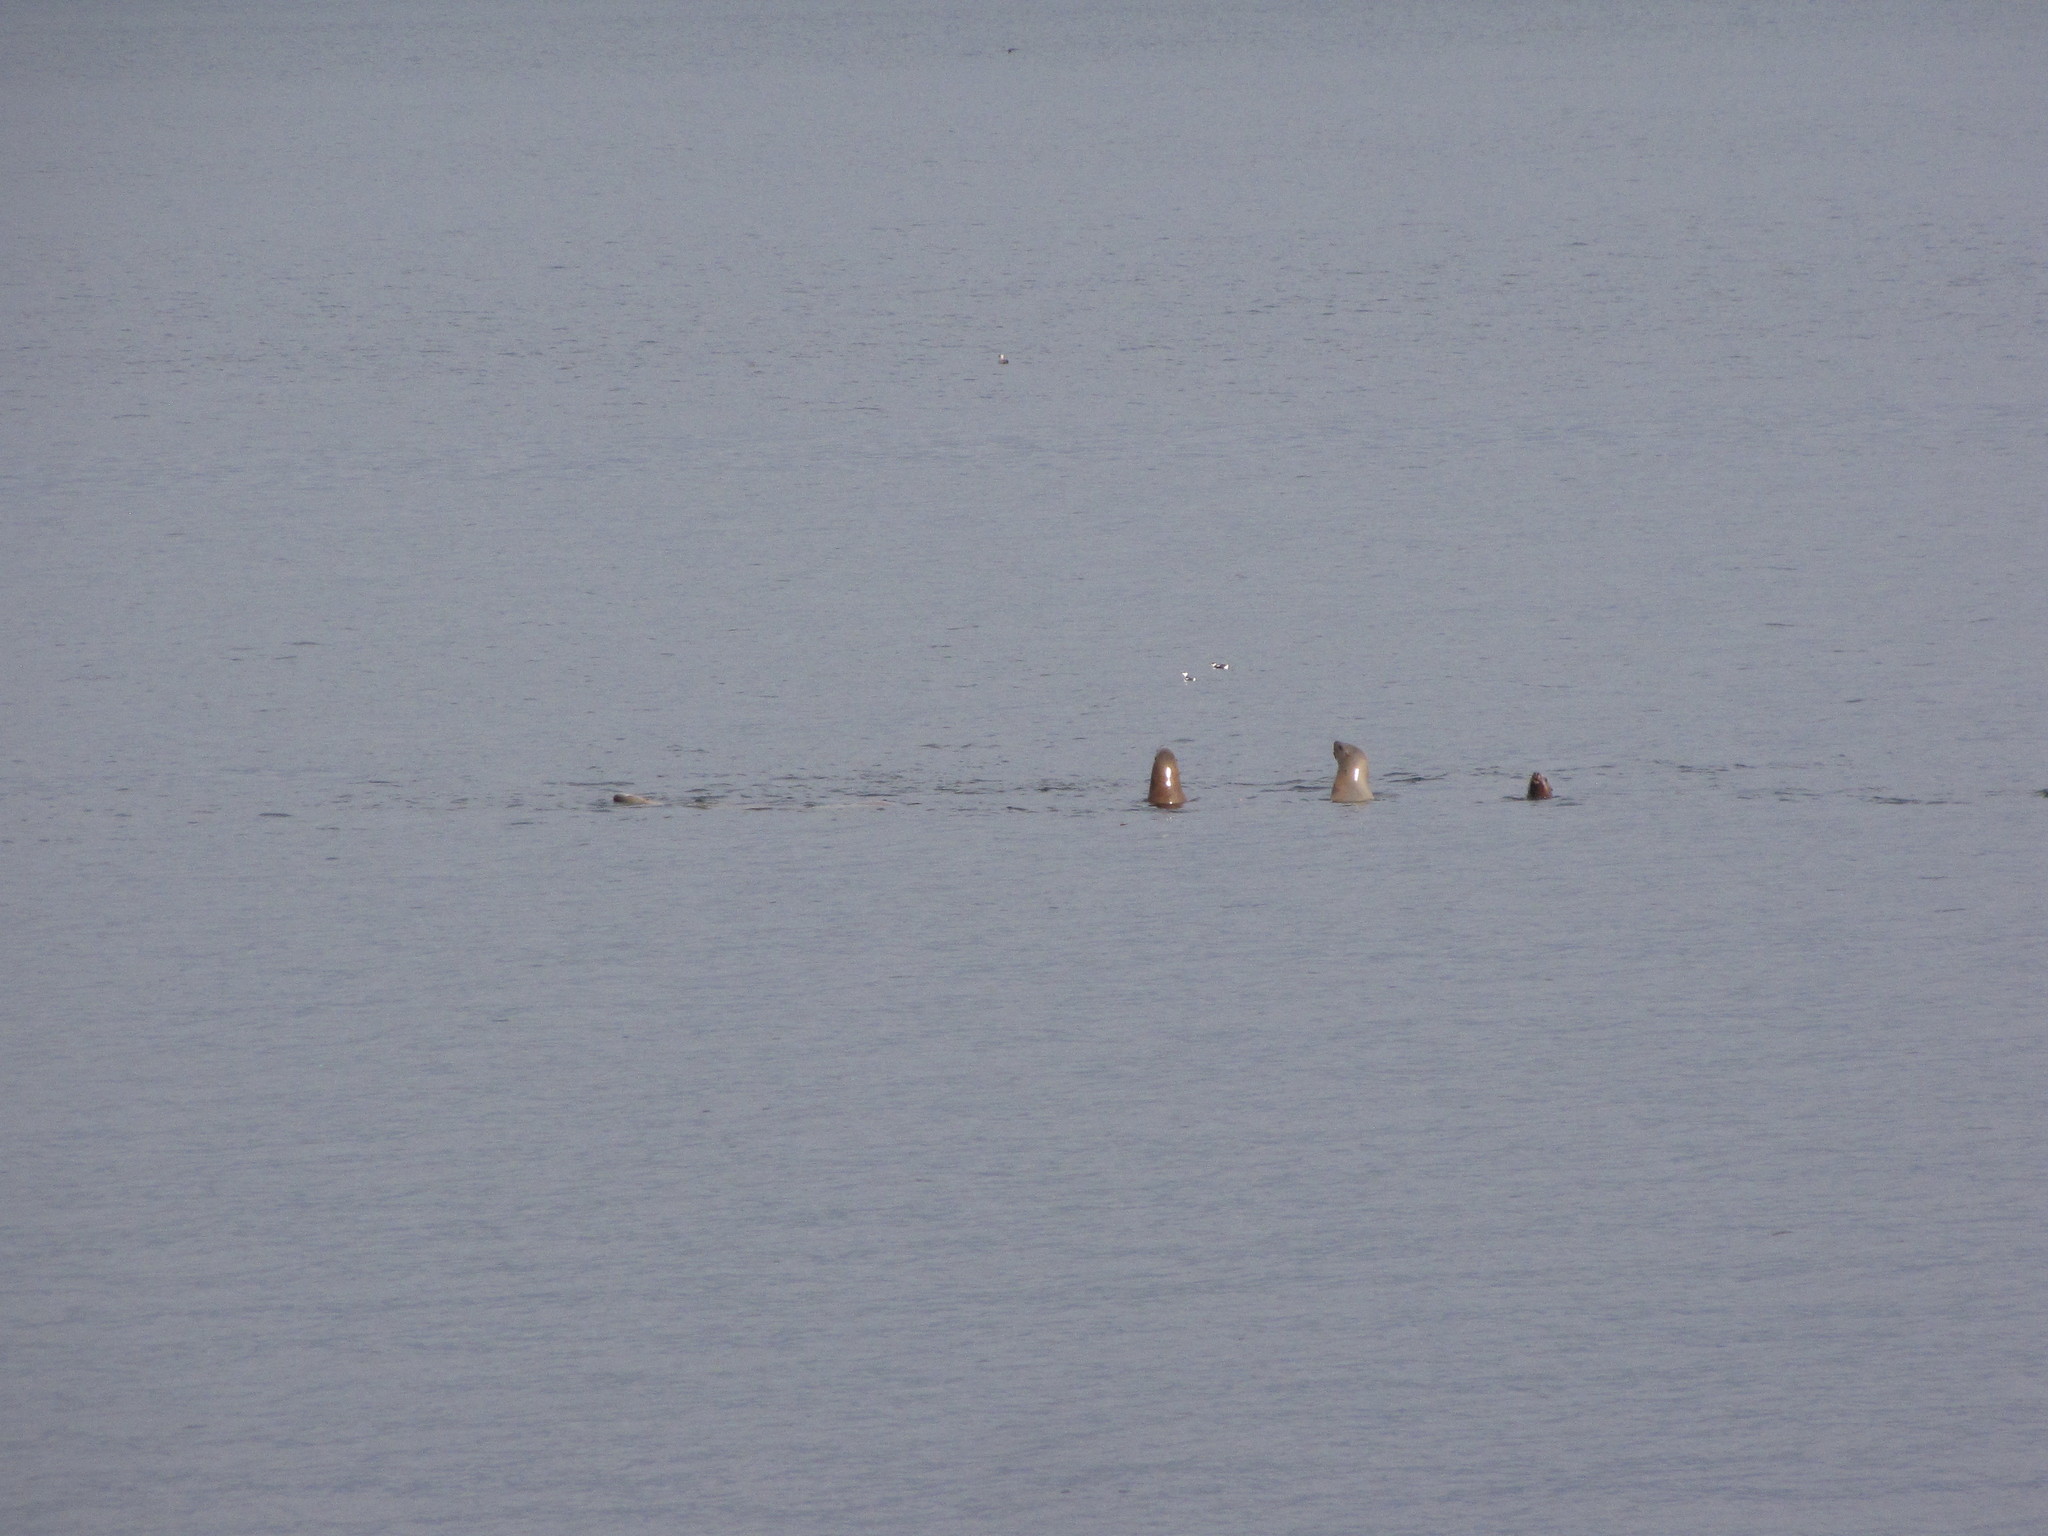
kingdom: Animalia
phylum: Chordata
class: Mammalia
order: Carnivora
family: Otariidae
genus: Eumetopias
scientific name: Eumetopias jubatus
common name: Steller sea lion
